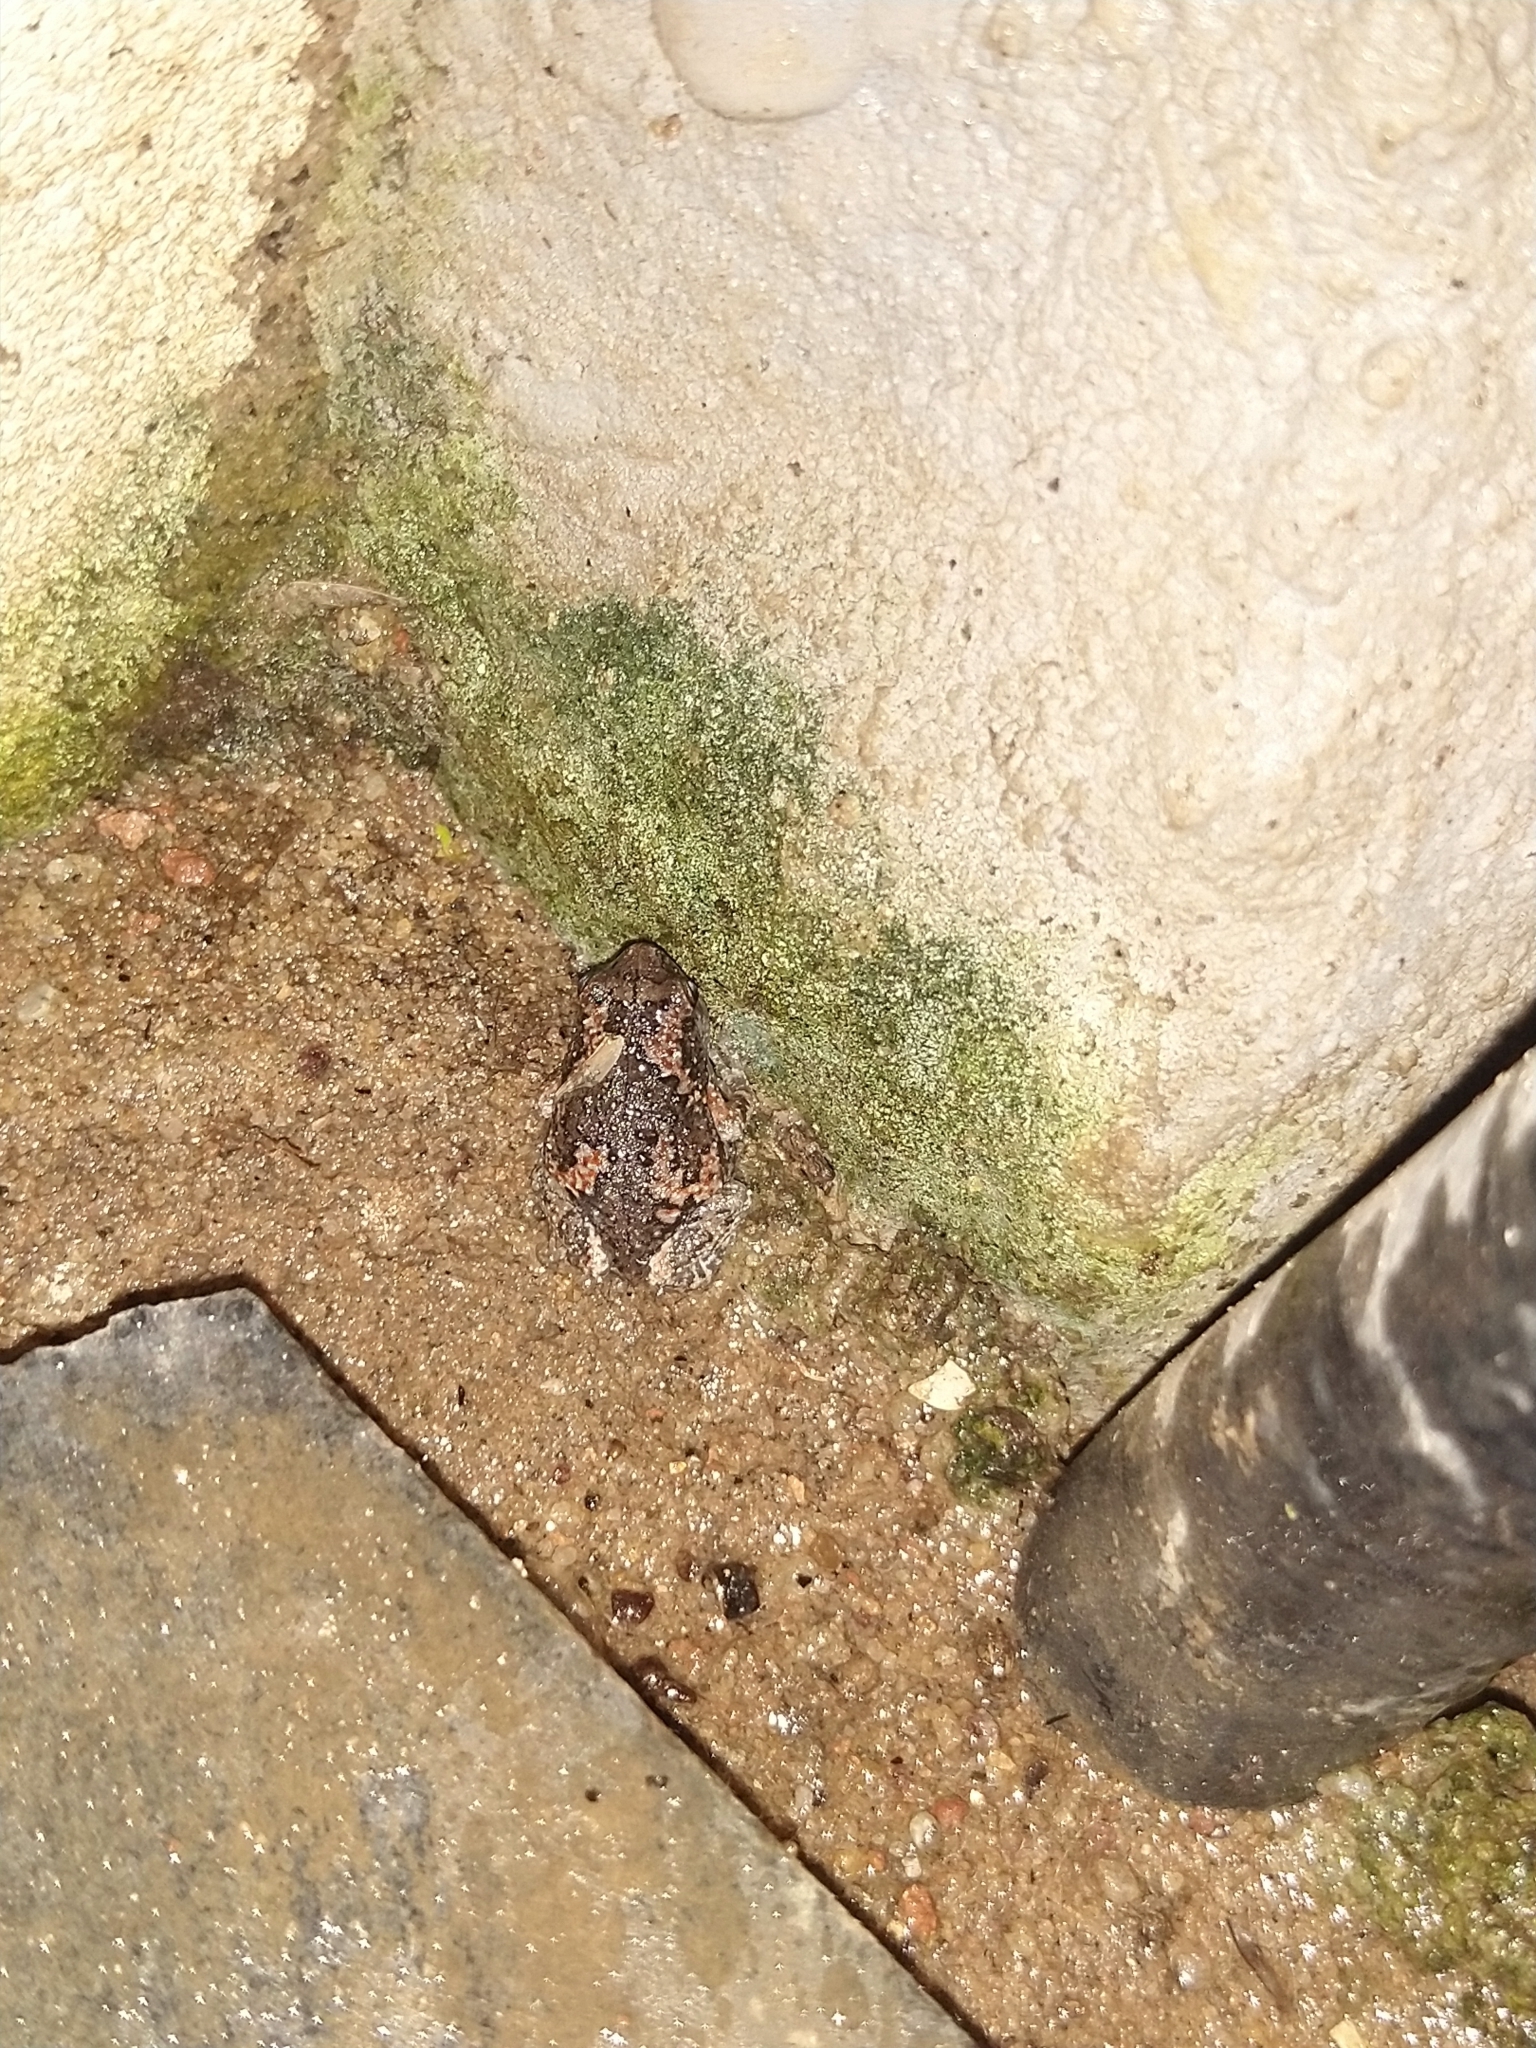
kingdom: Animalia
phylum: Chordata
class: Amphibia
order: Anura
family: Microhylidae
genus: Uperodon
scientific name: Uperodon taprobanicus
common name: Ceylon kaloula
